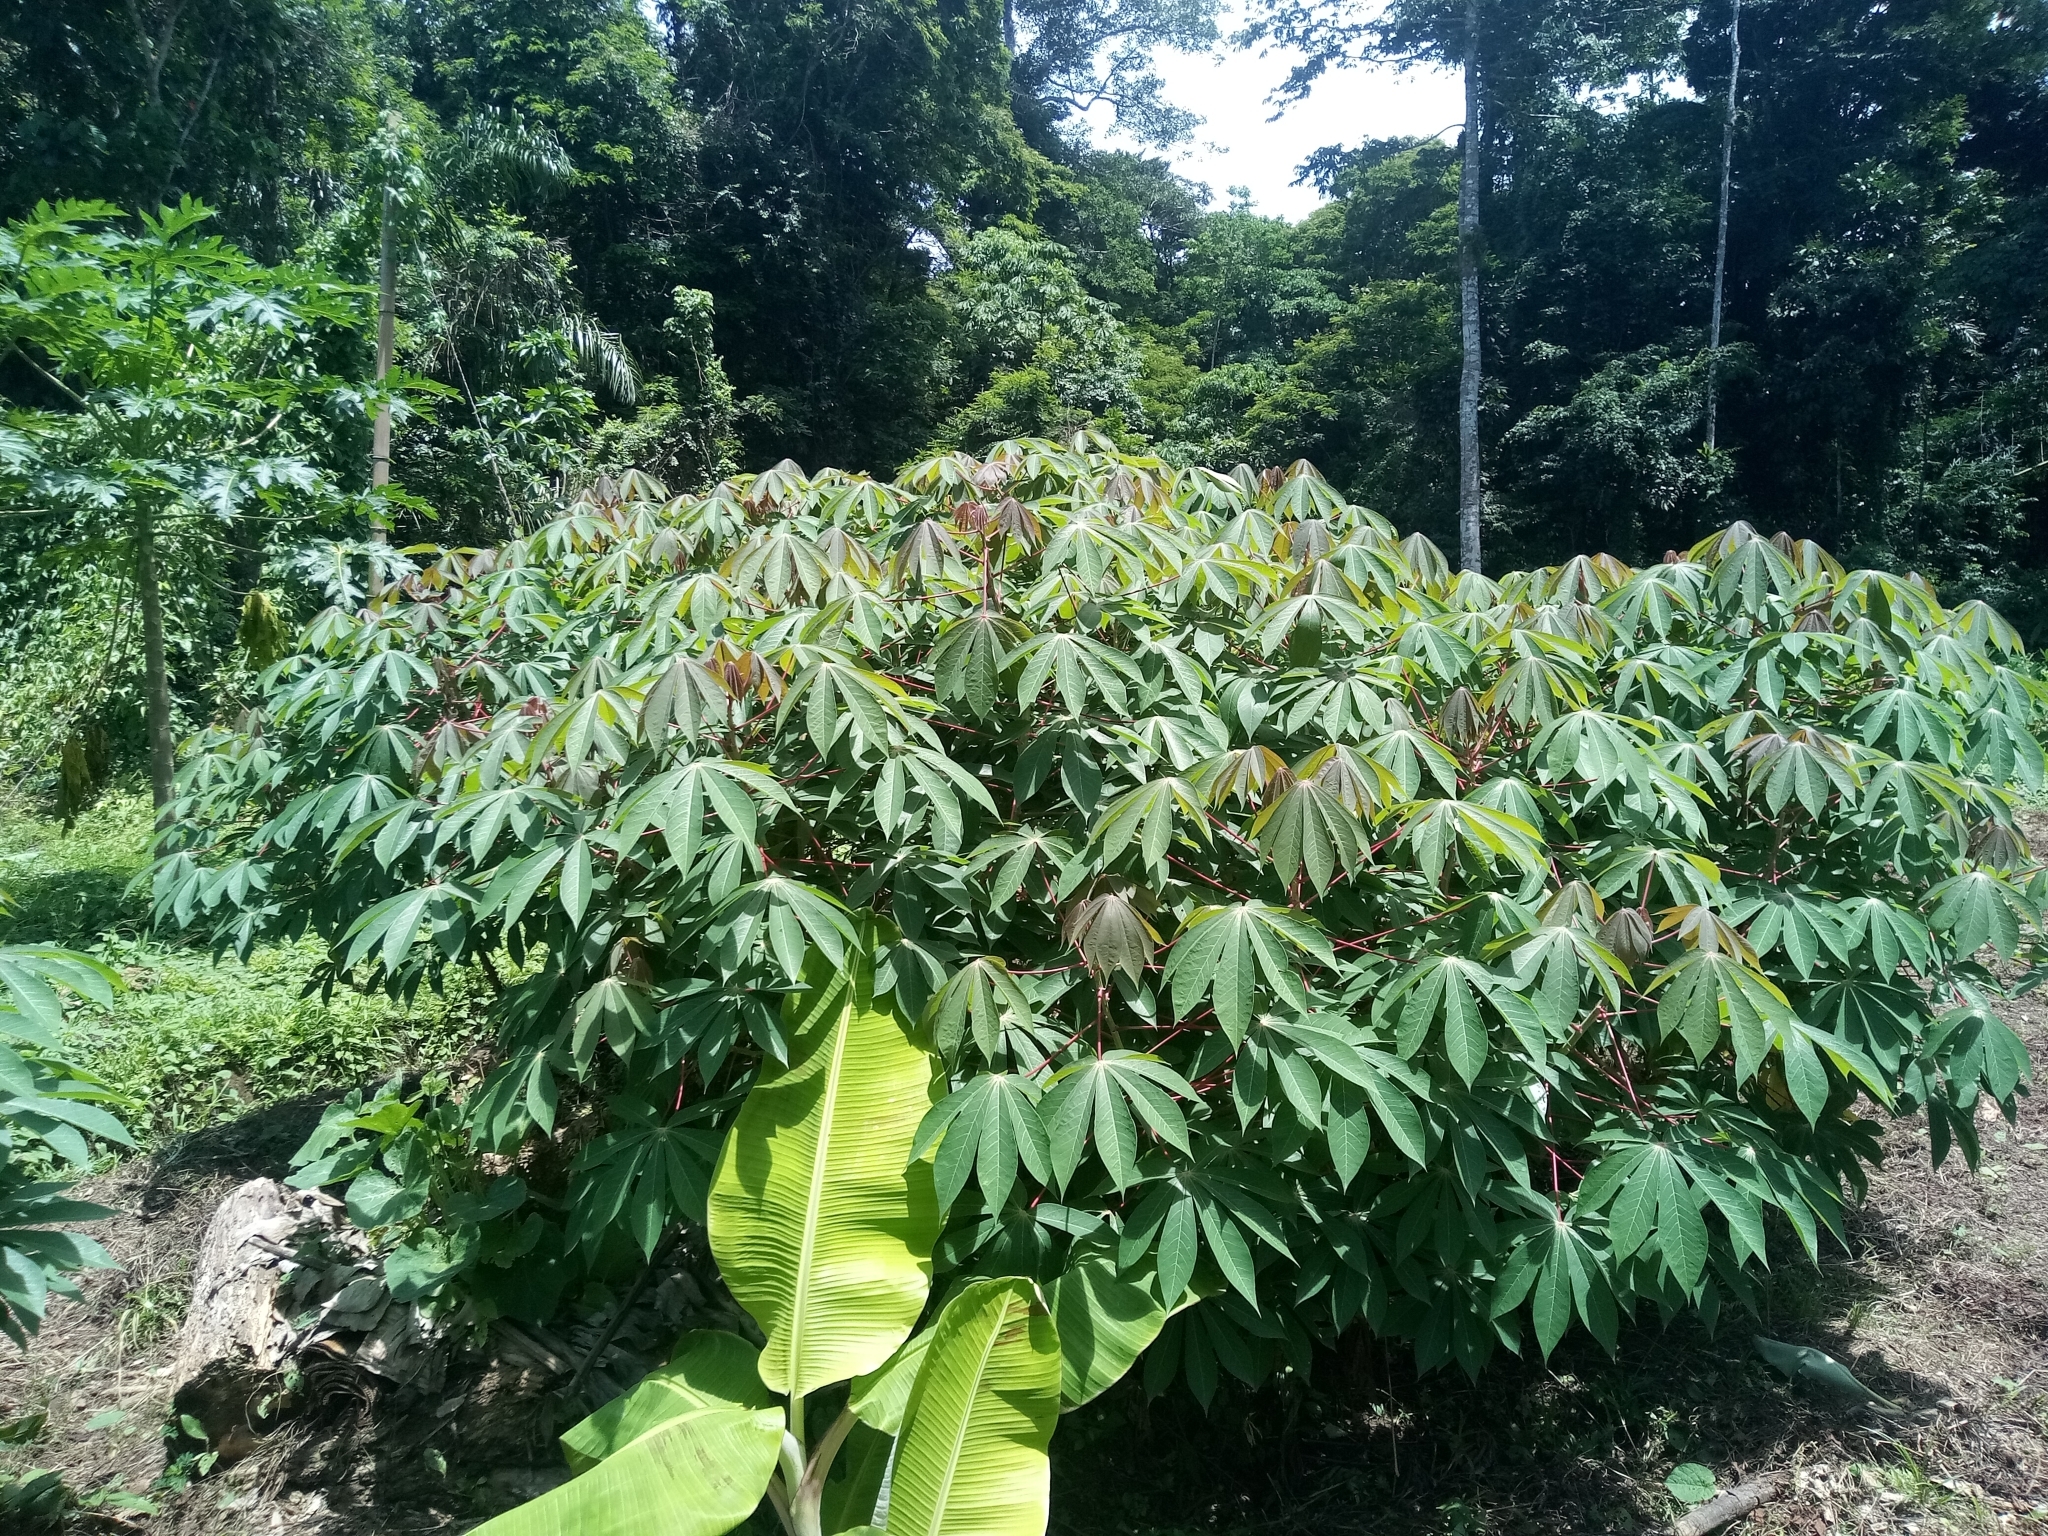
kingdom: Plantae
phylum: Tracheophyta
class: Magnoliopsida
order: Malpighiales
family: Euphorbiaceae
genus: Manihot
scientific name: Manihot esculenta
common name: Cassava
